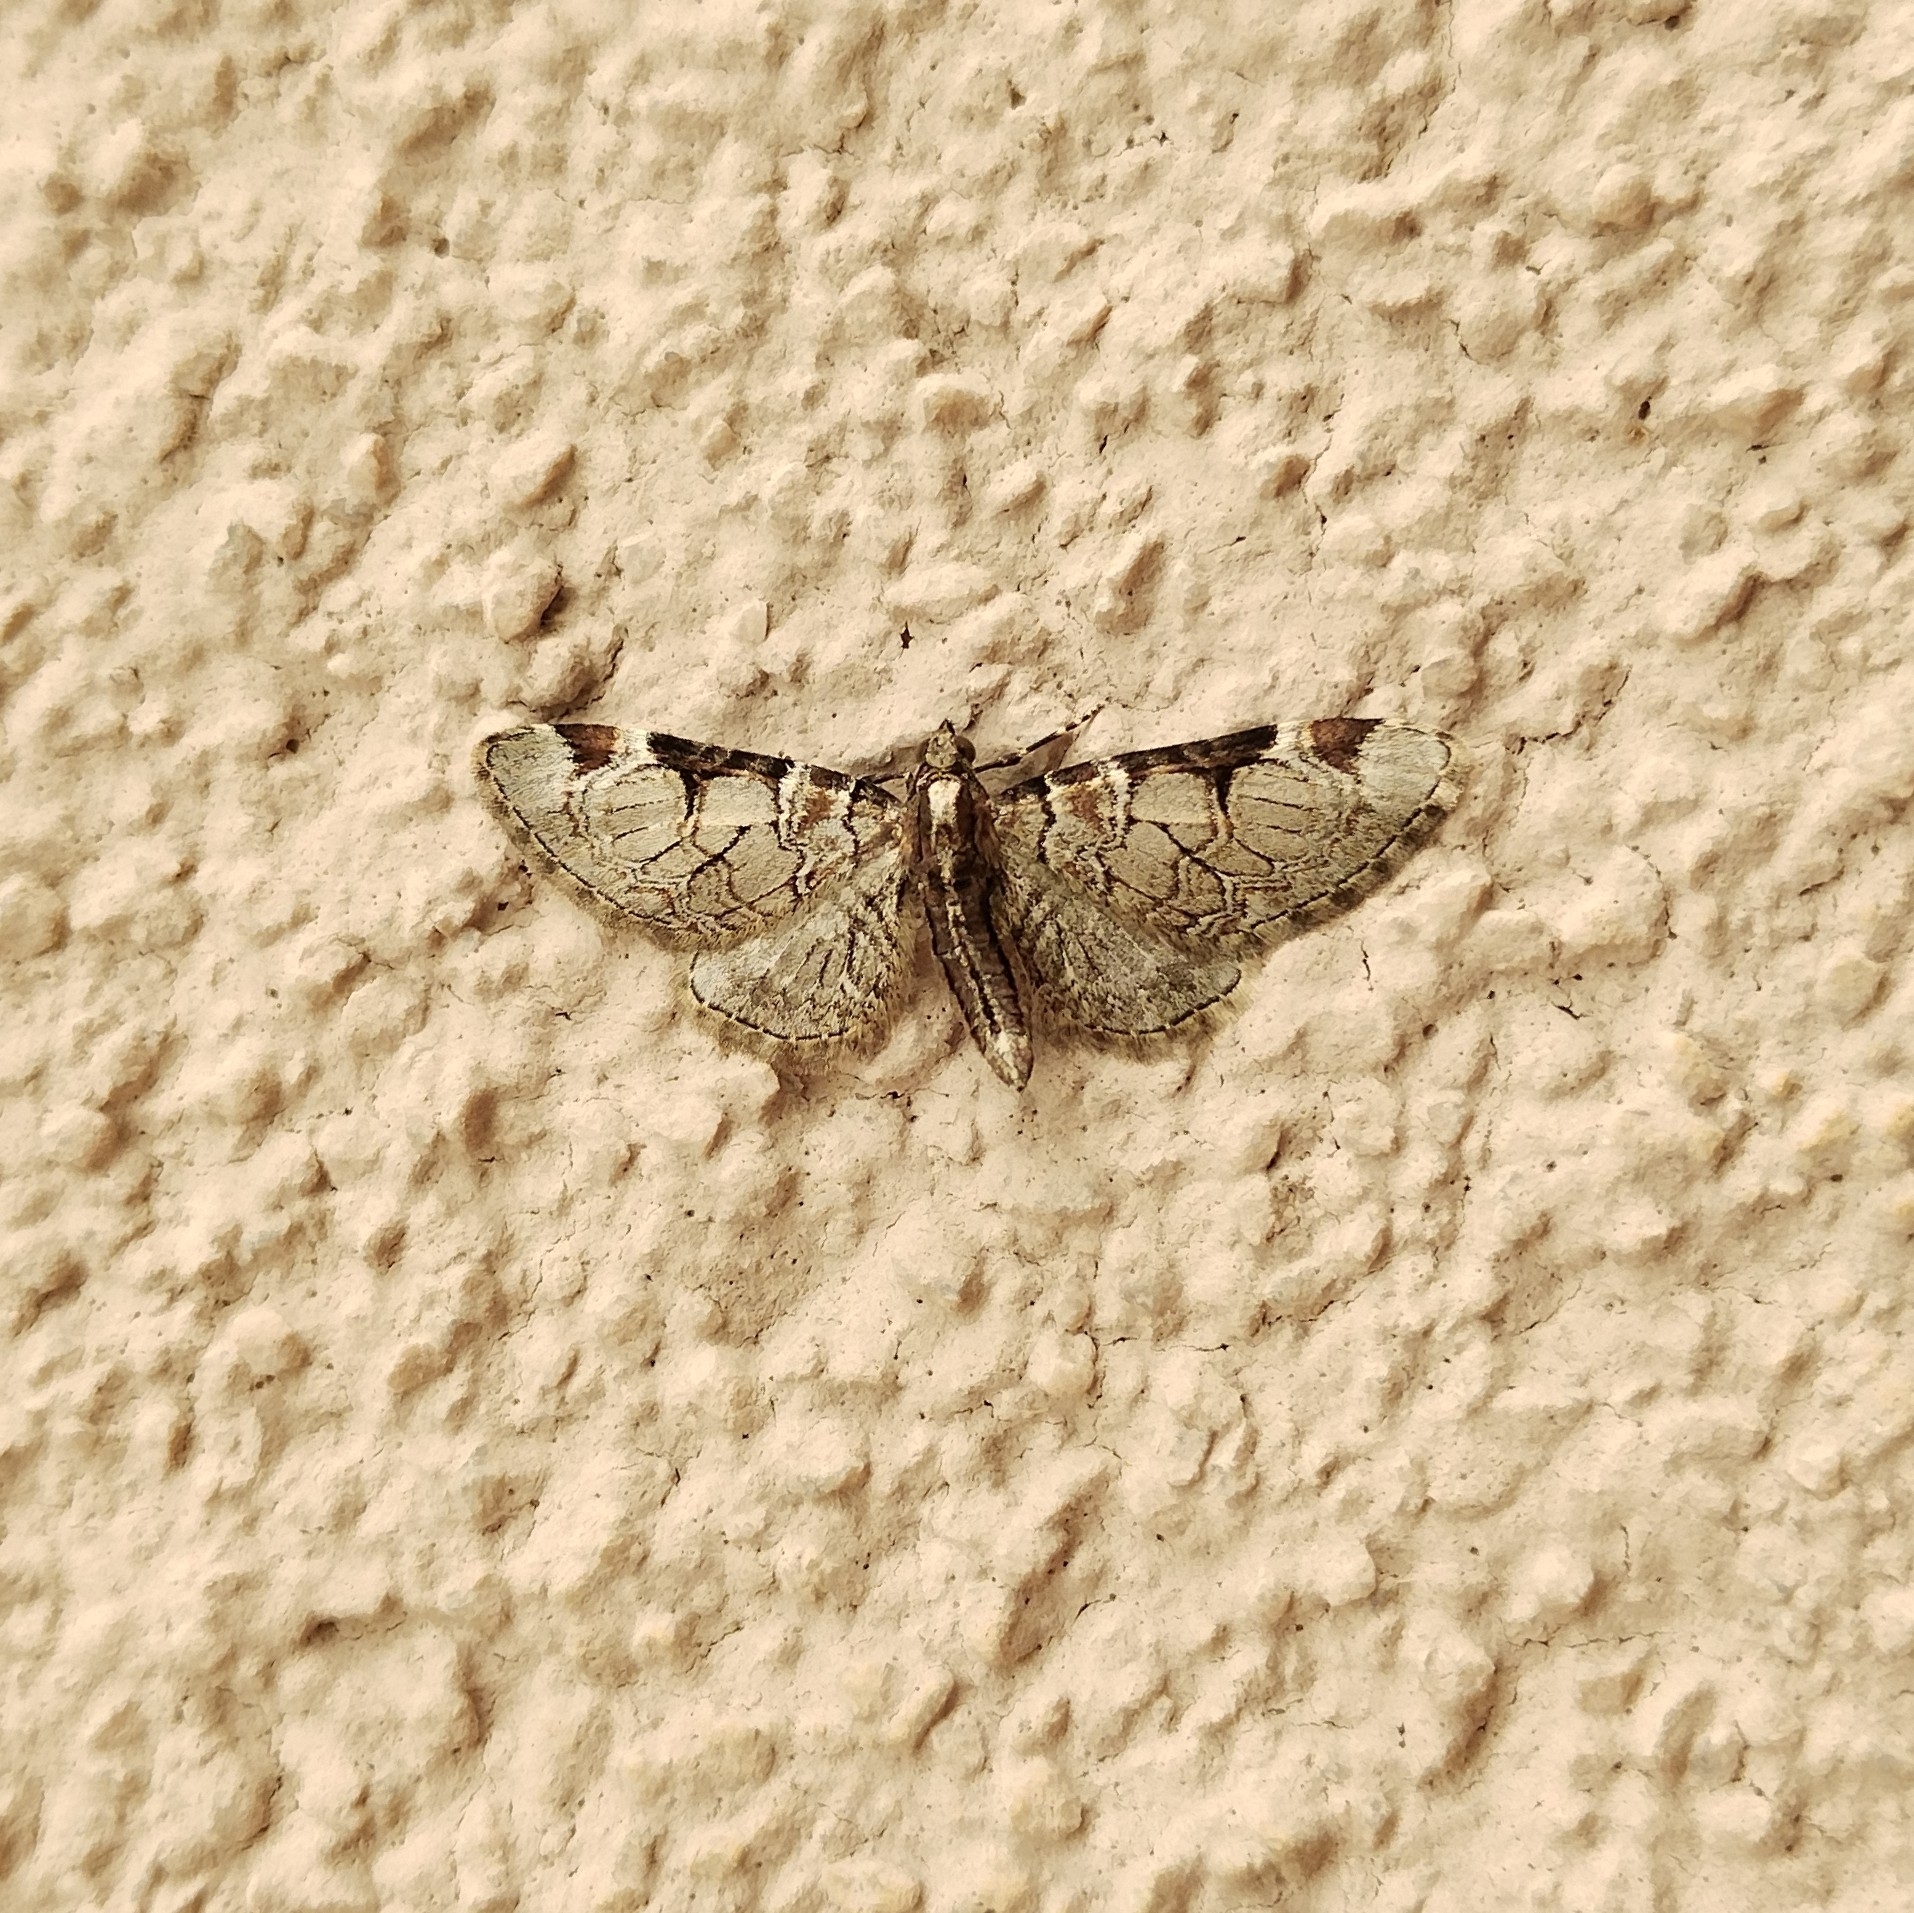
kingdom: Animalia
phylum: Arthropoda
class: Insecta
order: Lepidoptera
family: Geometridae
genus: Eupithecia
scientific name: Eupithecia insigniata
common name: Pinion-spotted pug
